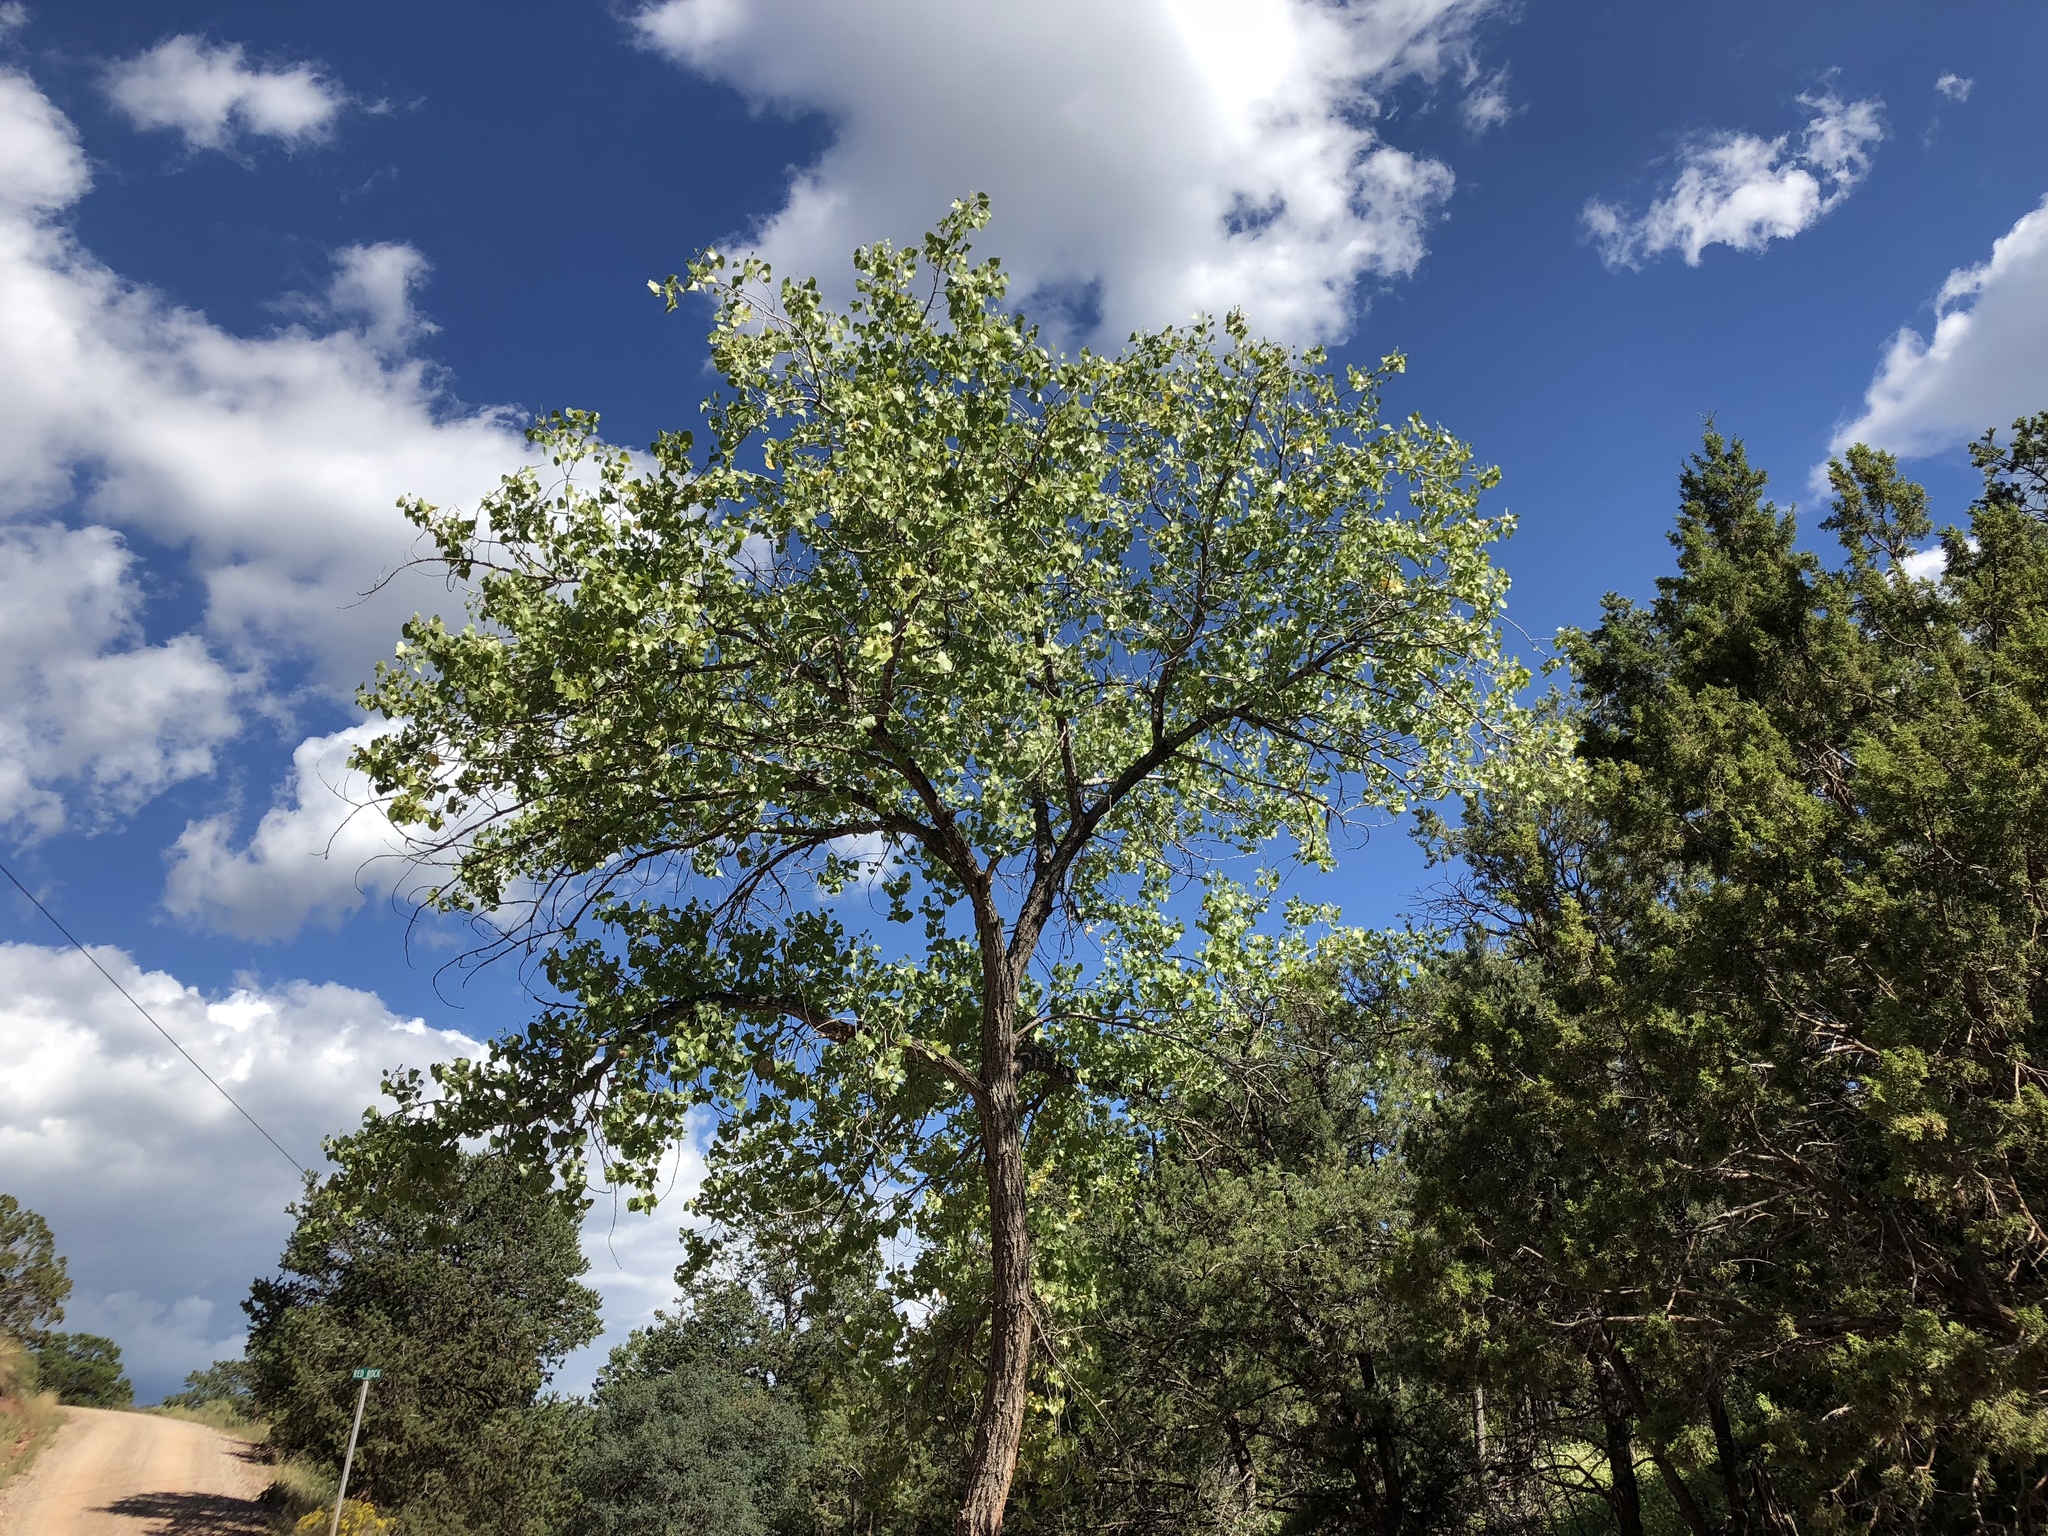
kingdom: Plantae
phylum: Tracheophyta
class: Magnoliopsida
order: Malpighiales
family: Salicaceae
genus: Populus
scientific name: Populus fremontii
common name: Fremont's cottonwood
